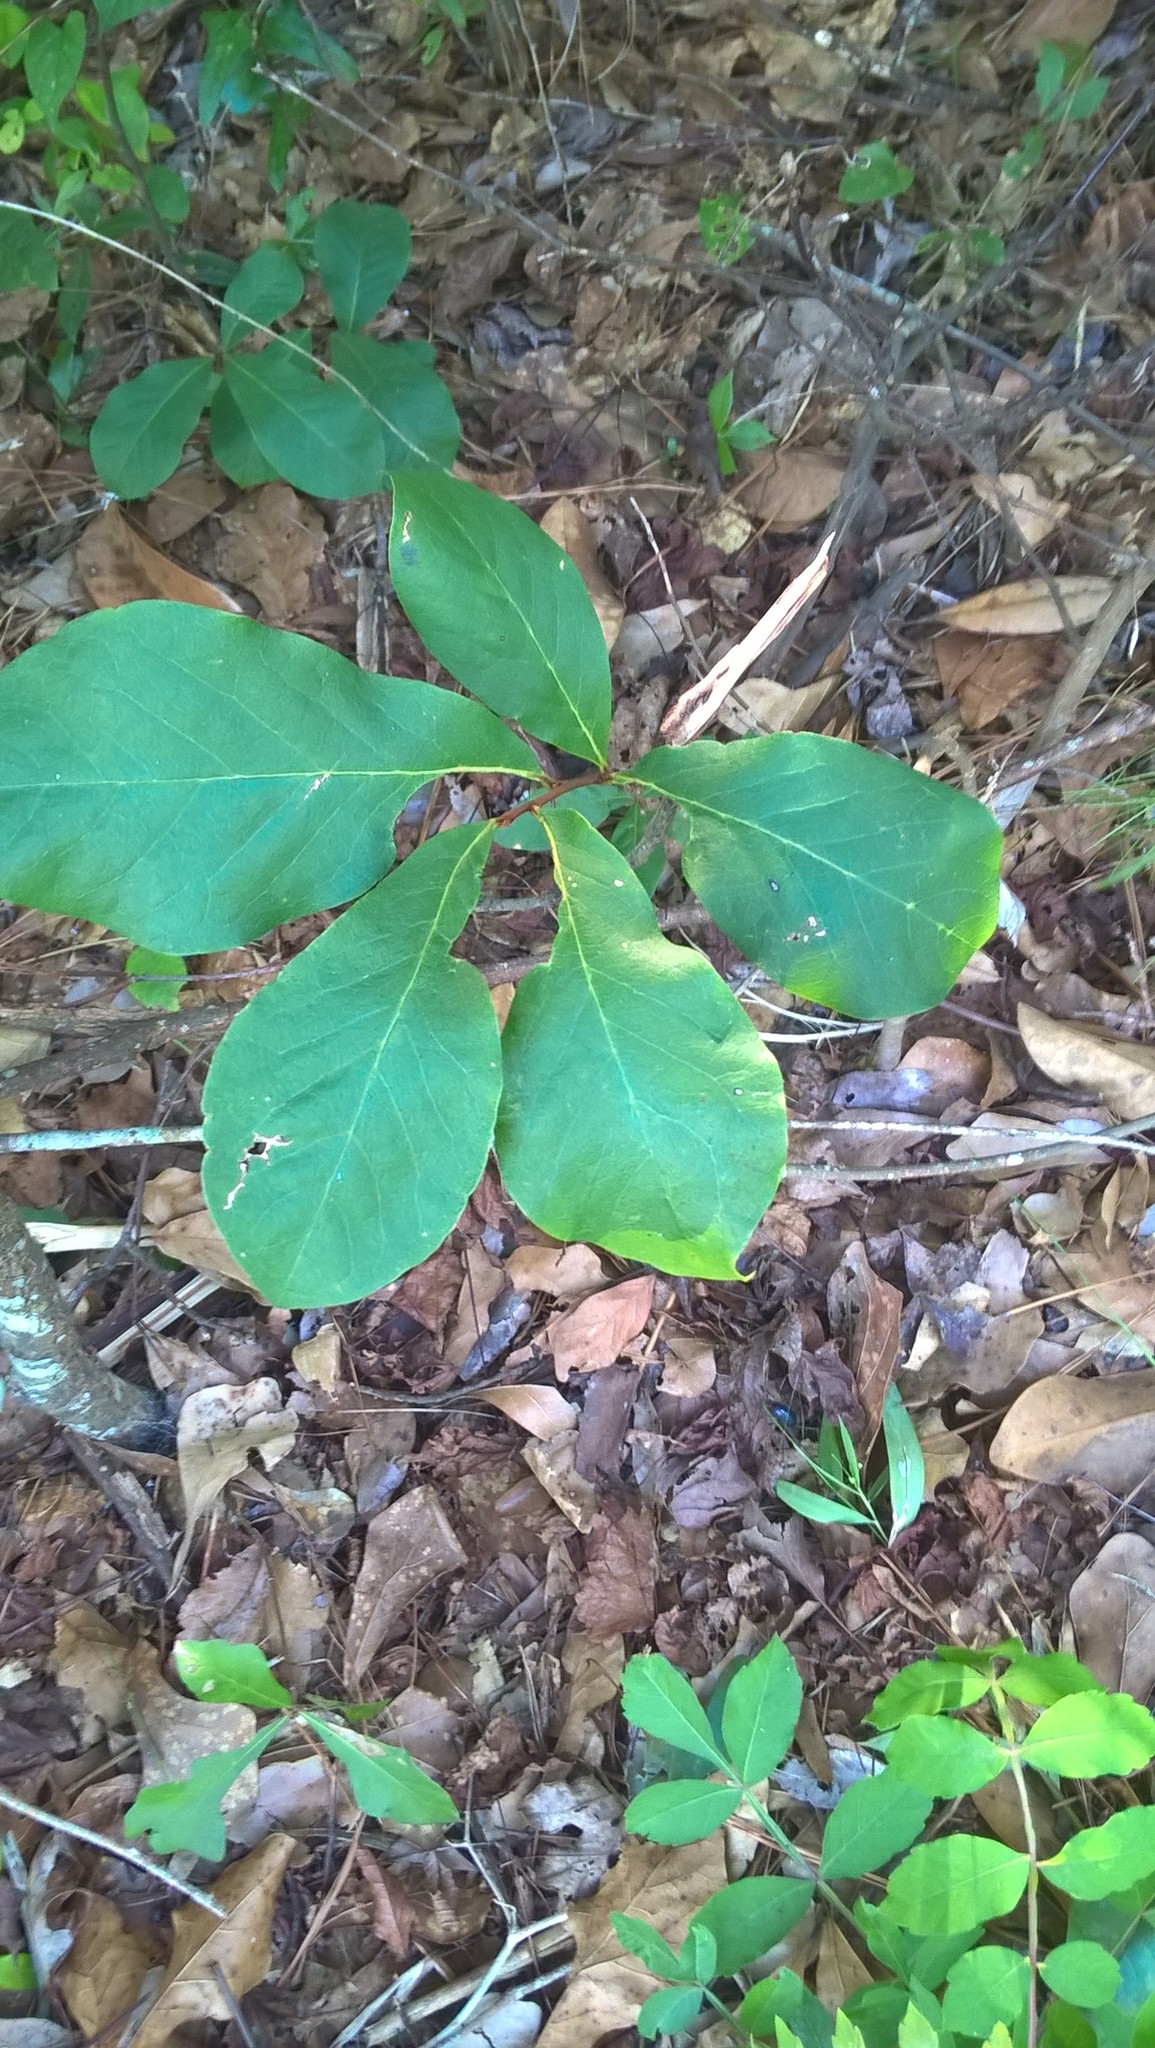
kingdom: Plantae
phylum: Tracheophyta
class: Magnoliopsida
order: Magnoliales
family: Annonaceae
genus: Asimina
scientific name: Asimina parviflora
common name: Dwarf pawpaw
